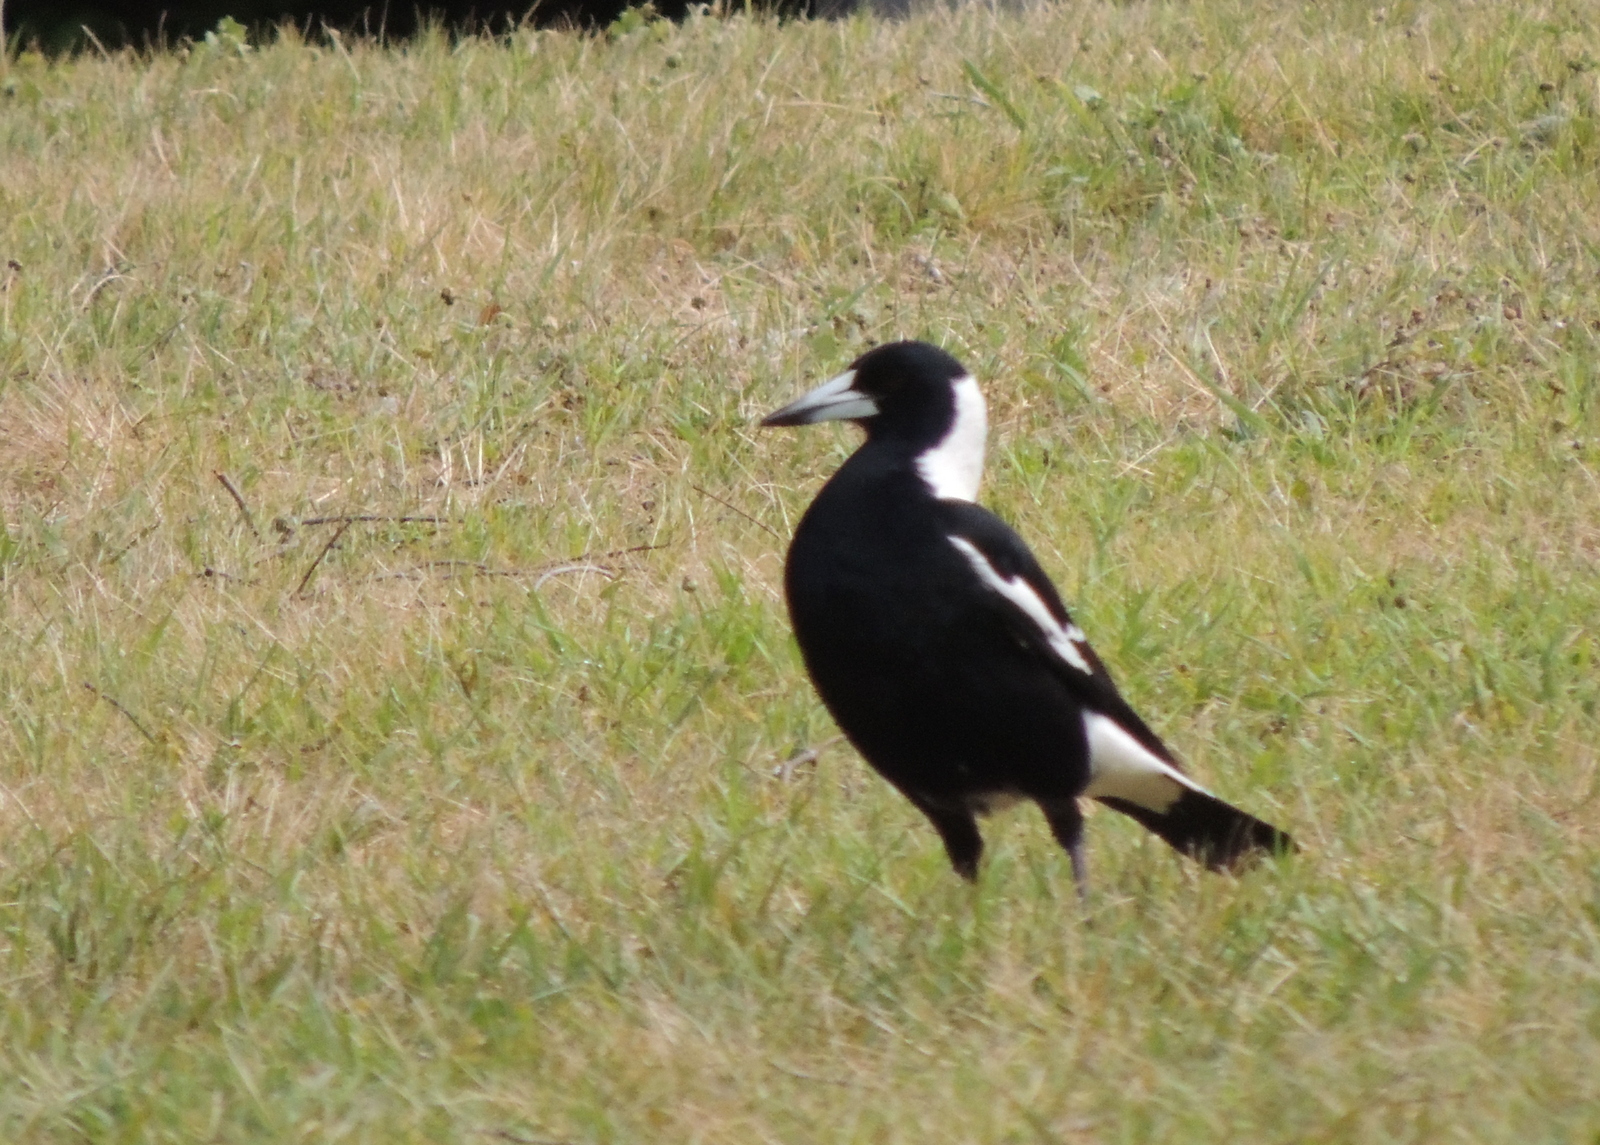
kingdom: Animalia
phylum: Chordata
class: Aves
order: Passeriformes
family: Cracticidae
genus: Gymnorhina
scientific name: Gymnorhina tibicen
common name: Australian magpie
